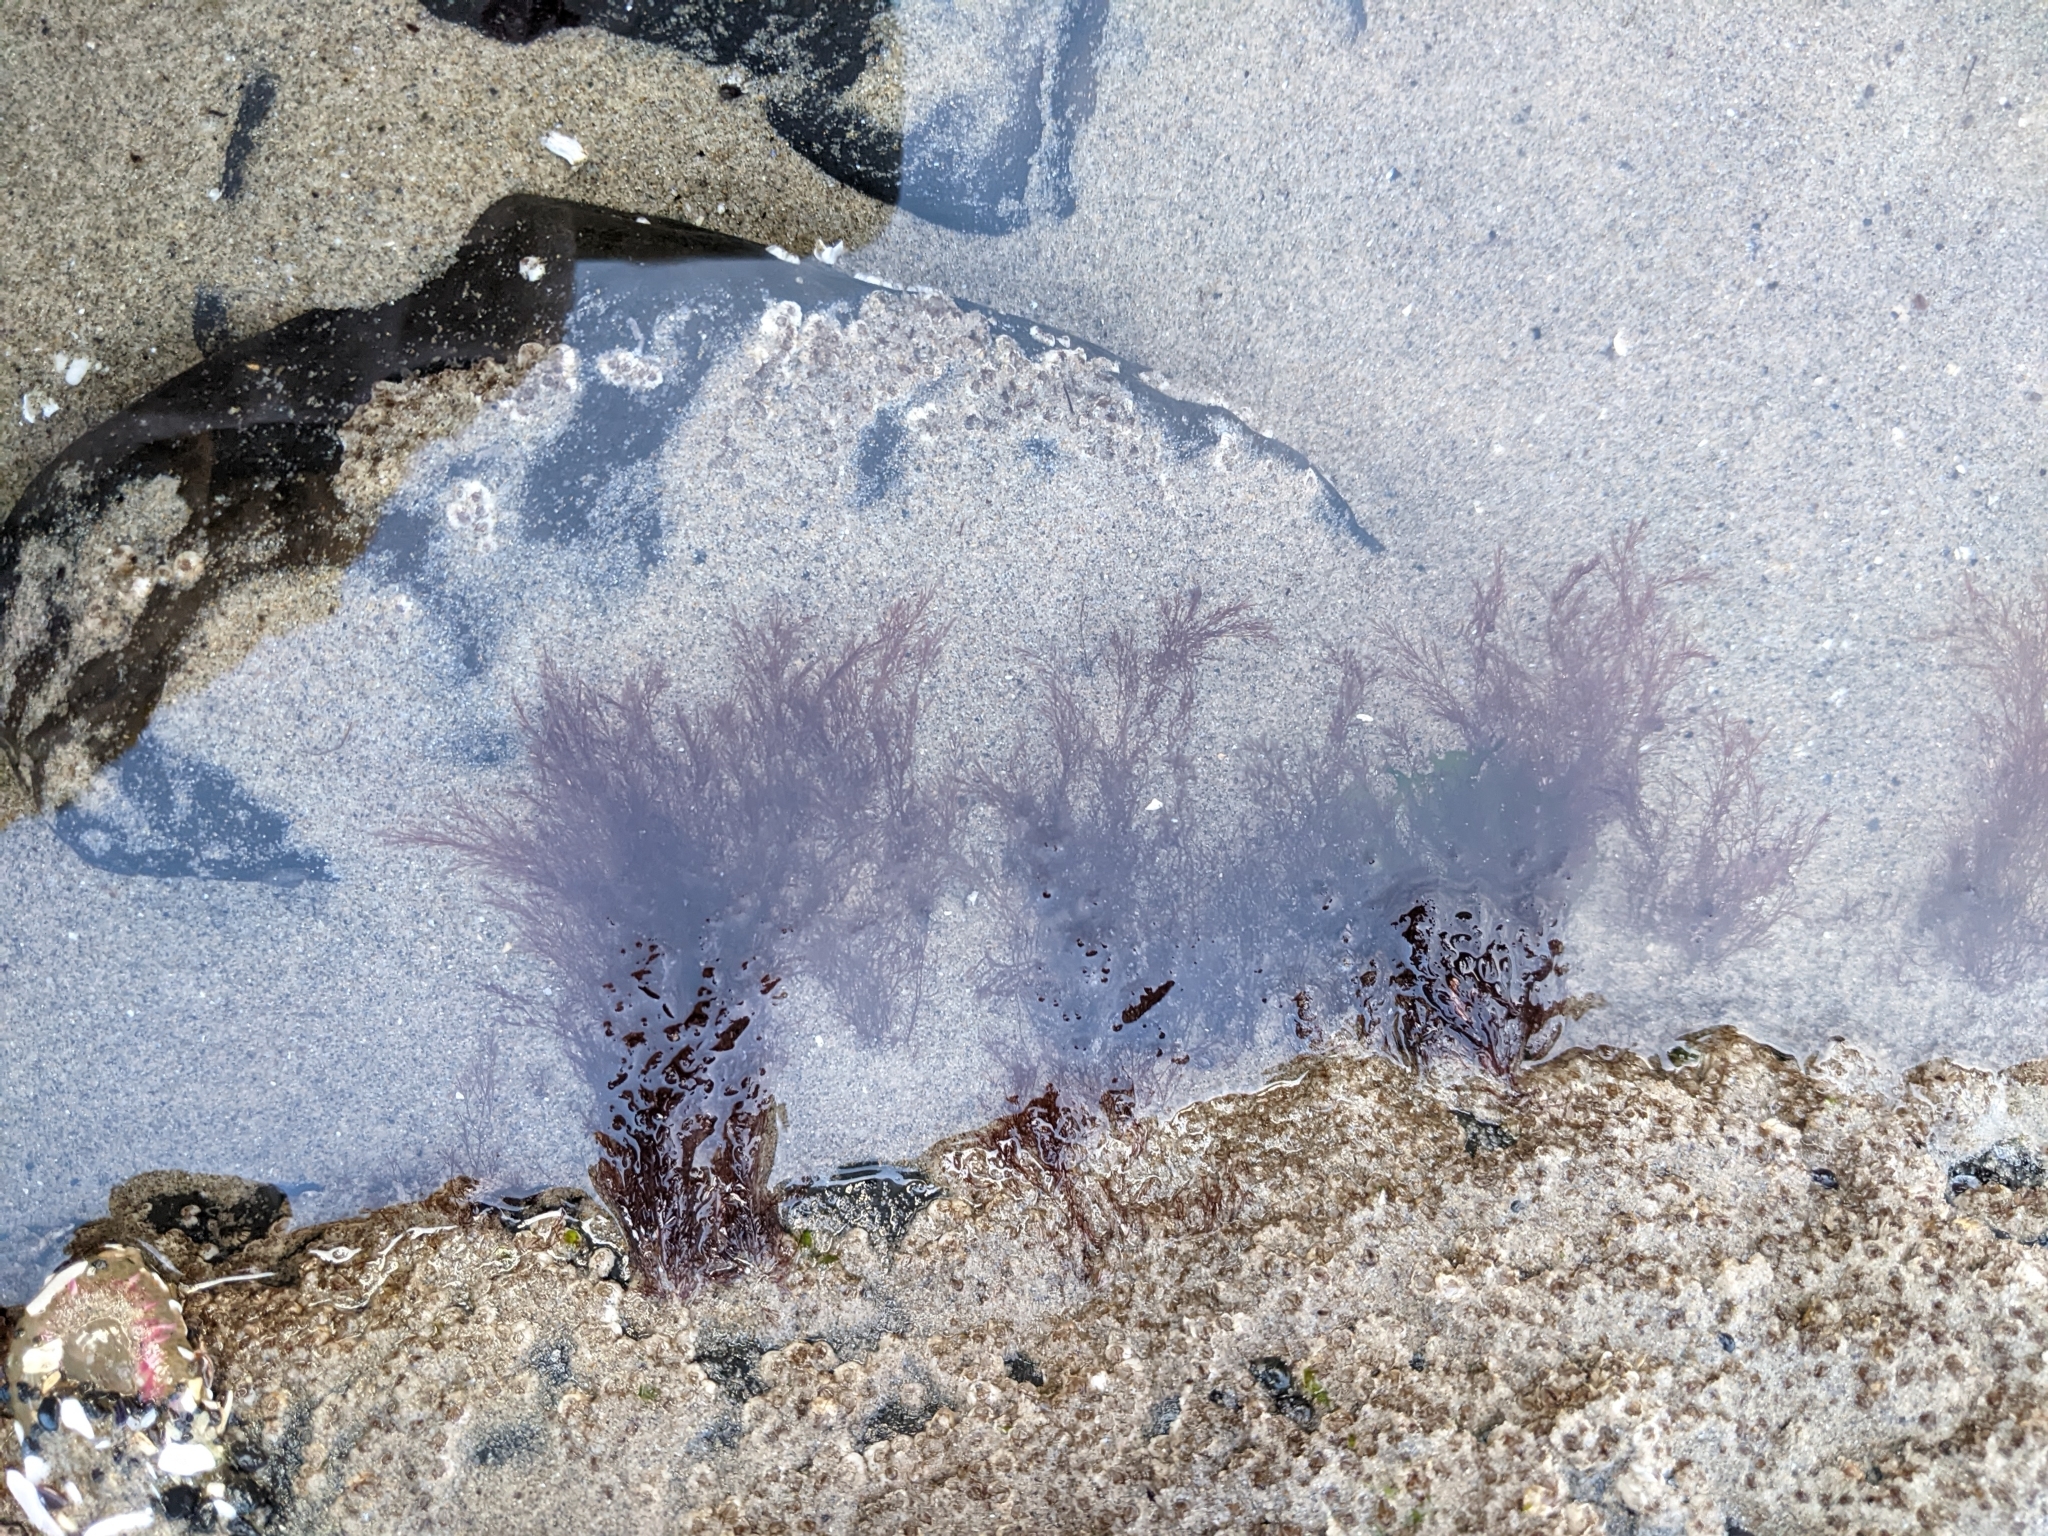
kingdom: Plantae
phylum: Rhodophyta
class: Florideophyceae
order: Ceramiales
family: Rhodomelaceae
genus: Polysiphonia
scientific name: Polysiphonia
